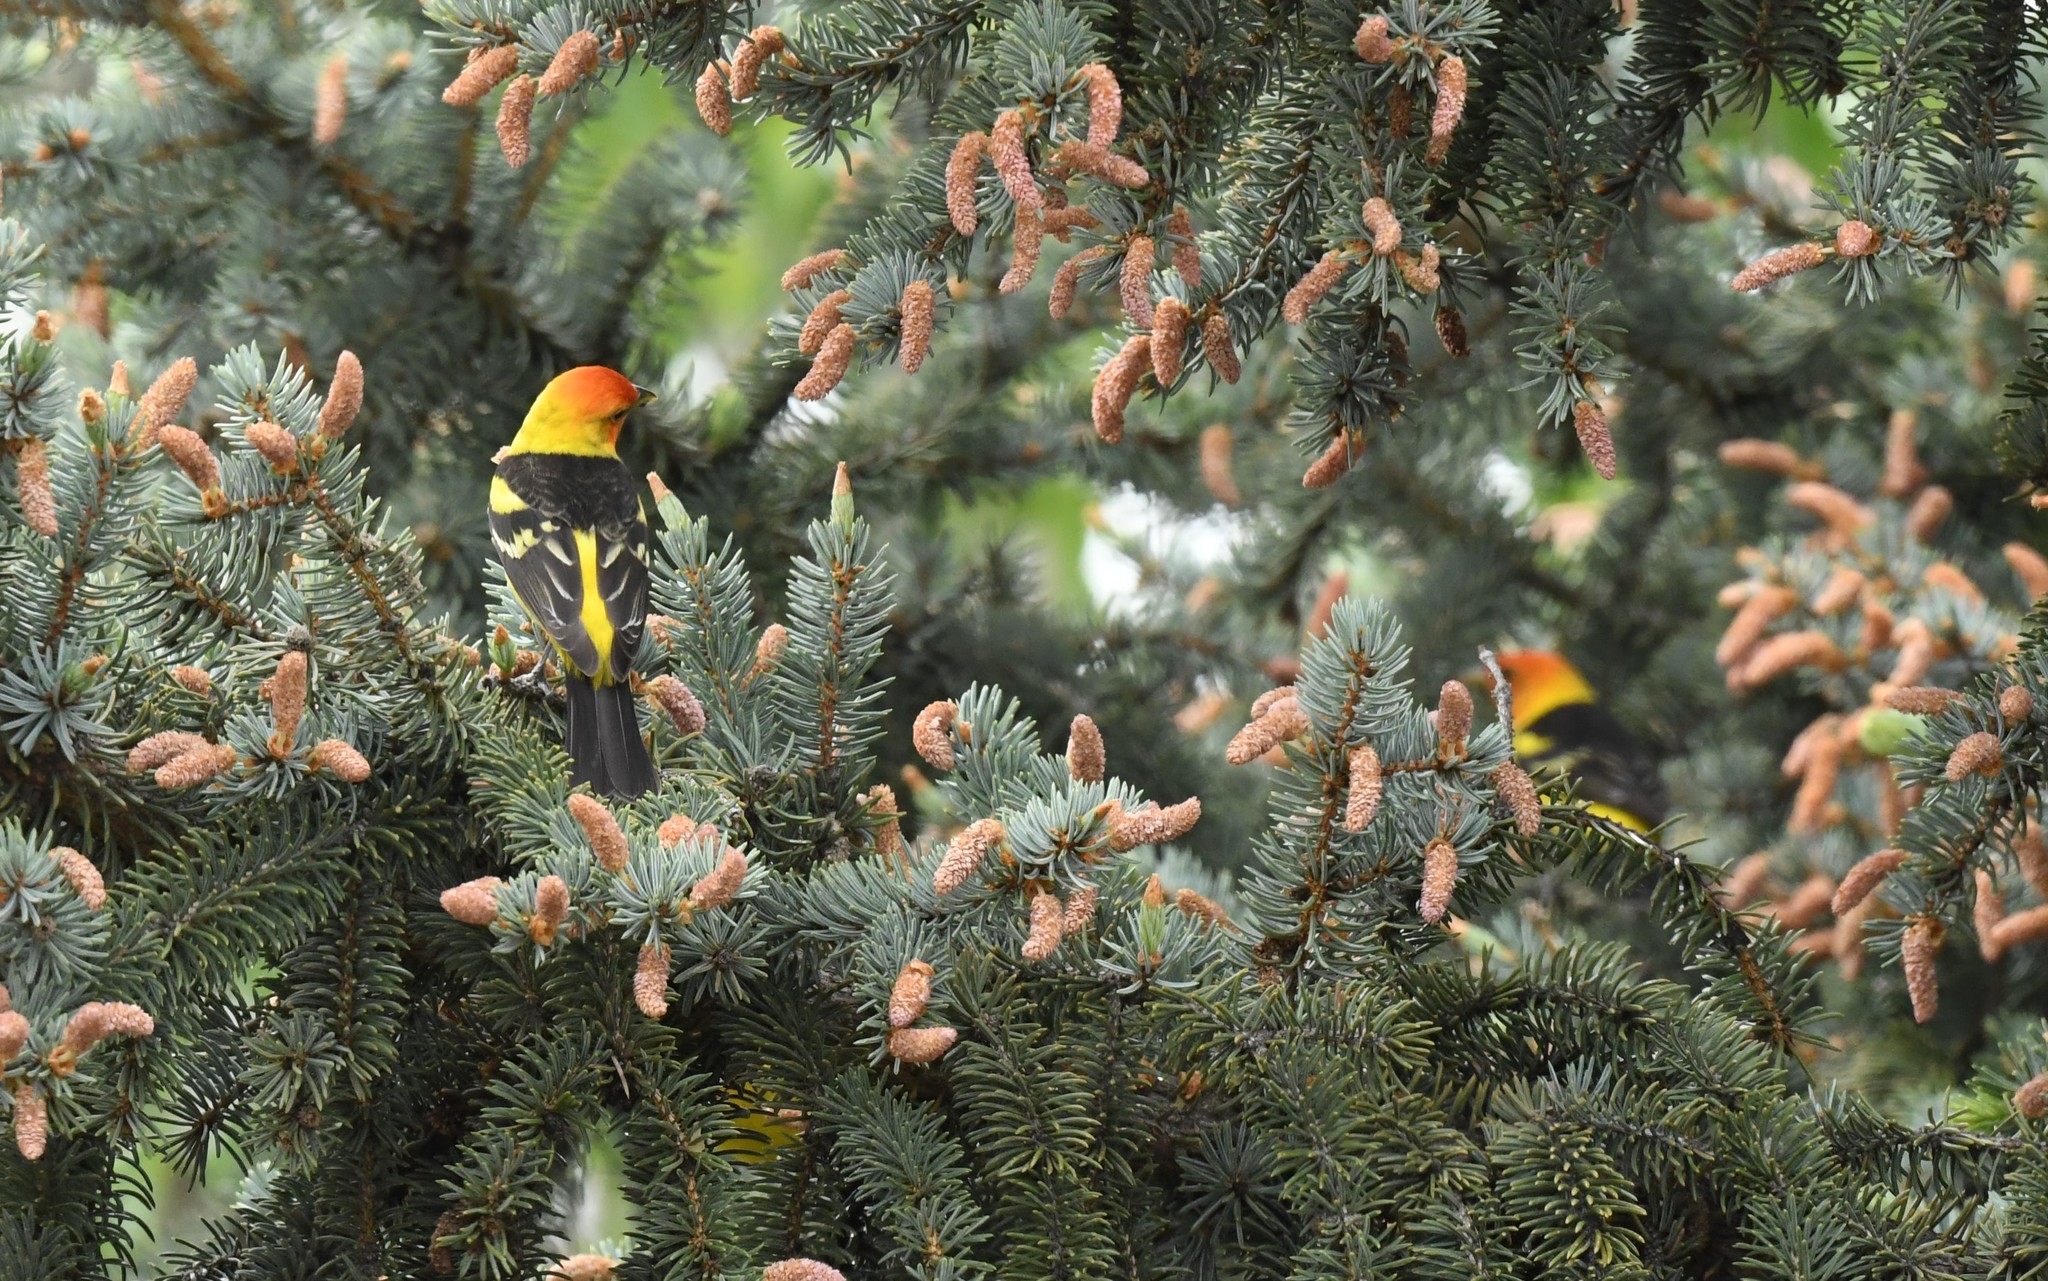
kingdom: Animalia
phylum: Chordata
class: Aves
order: Passeriformes
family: Cardinalidae
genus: Piranga
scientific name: Piranga ludoviciana
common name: Western tanager
